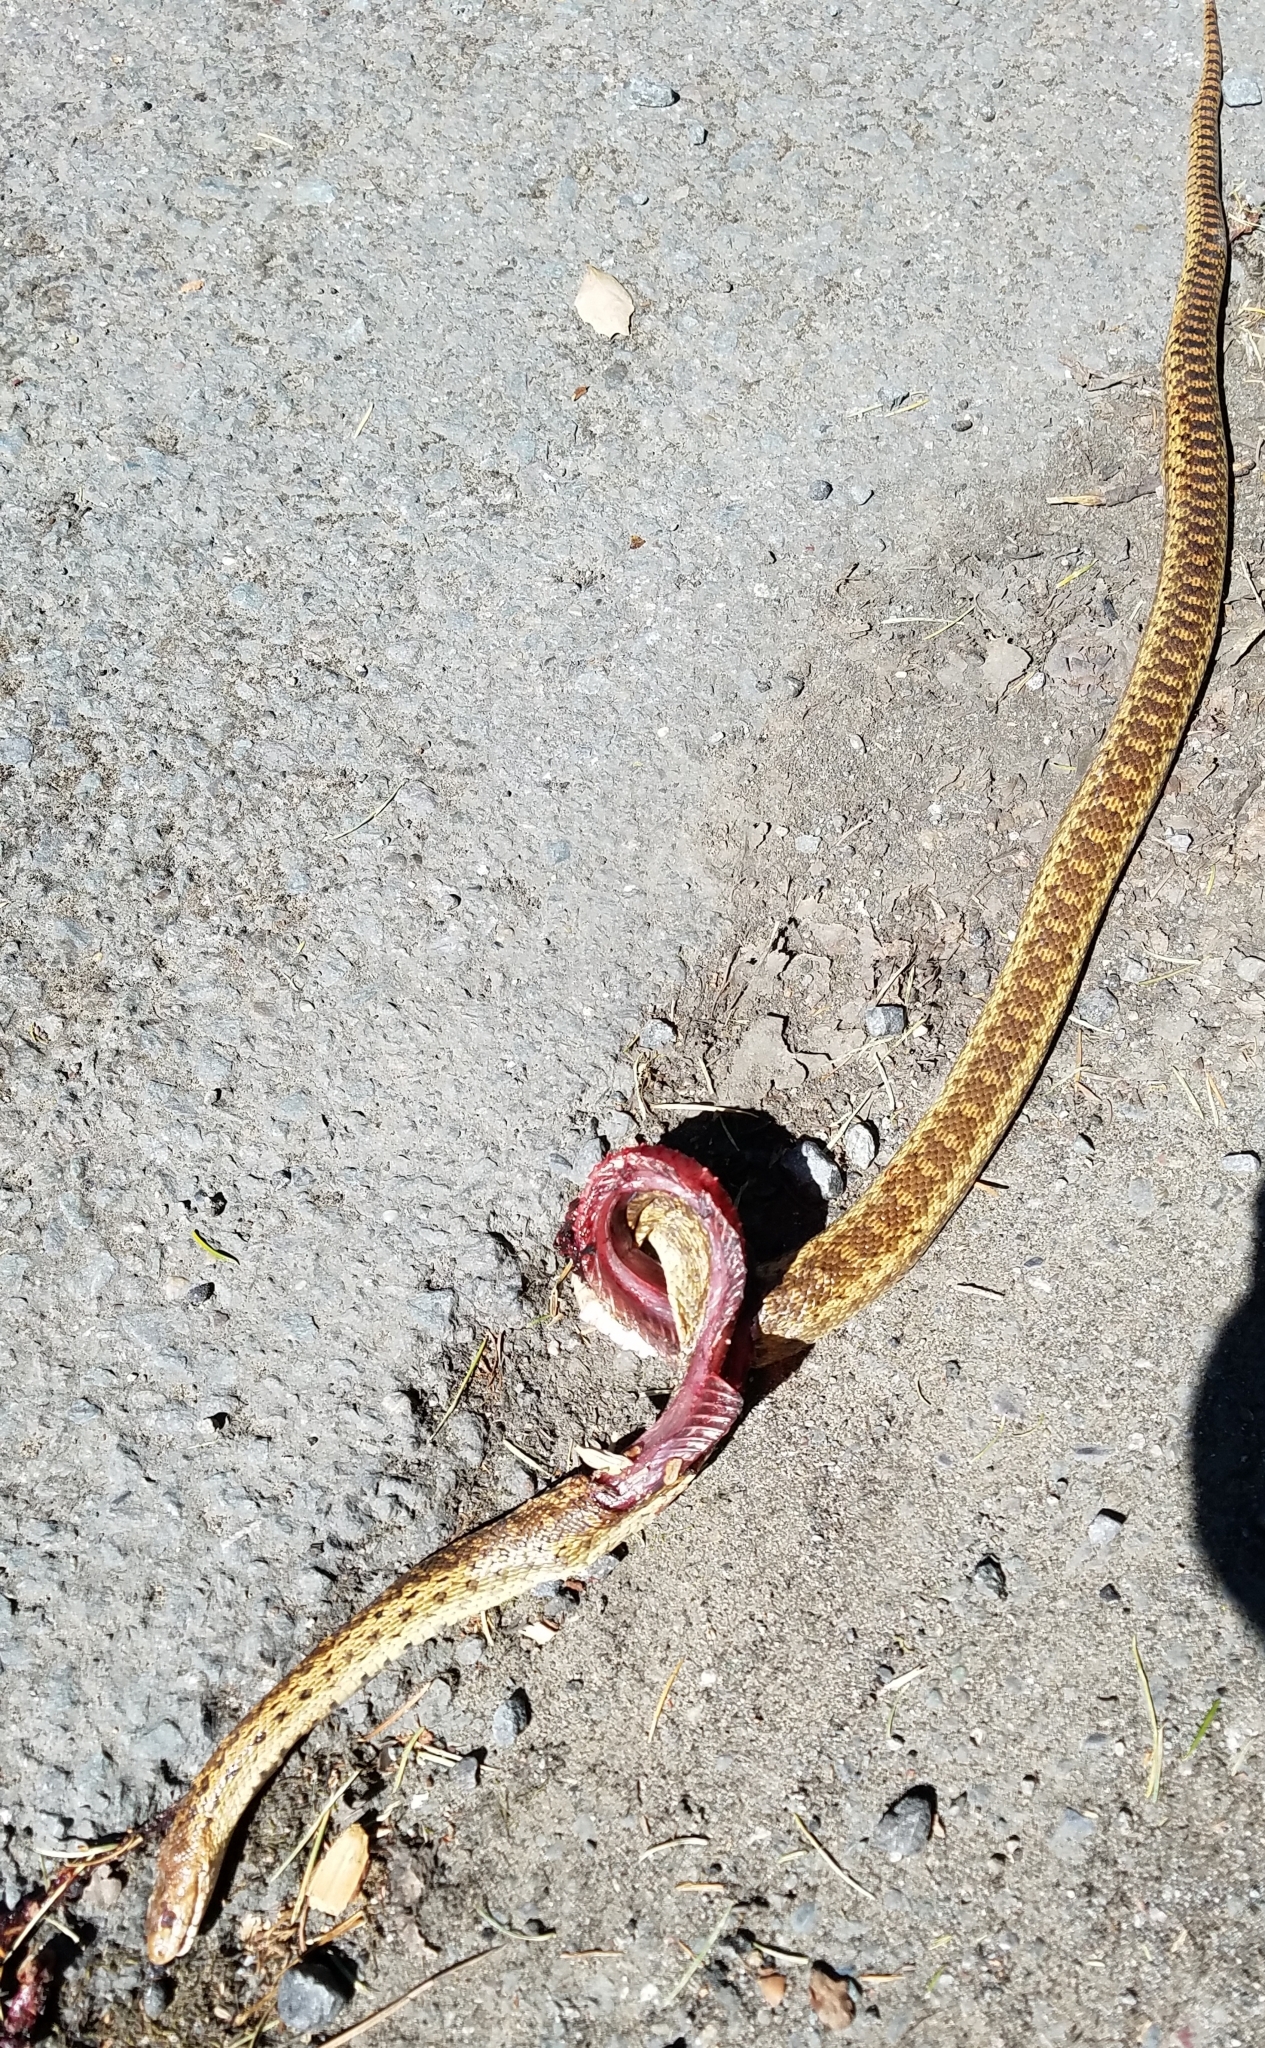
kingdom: Animalia
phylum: Chordata
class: Squamata
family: Colubridae
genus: Pituophis
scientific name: Pituophis catenifer
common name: Gopher snake
